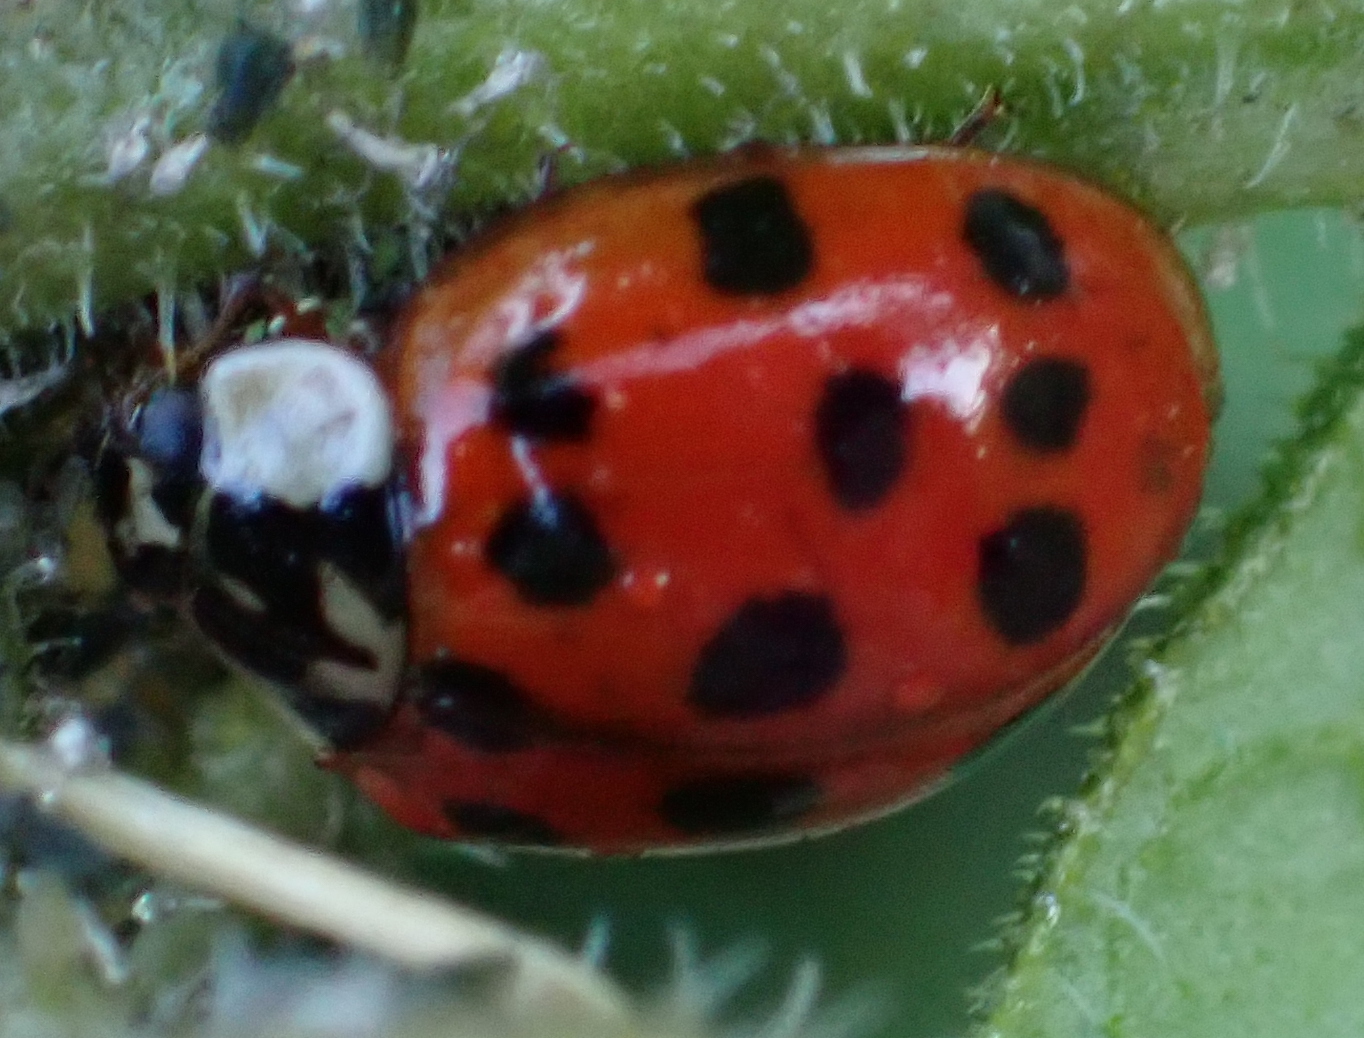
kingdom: Animalia
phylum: Arthropoda
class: Insecta
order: Coleoptera
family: Coccinellidae
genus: Harmonia
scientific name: Harmonia axyridis
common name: Harlequin ladybird
